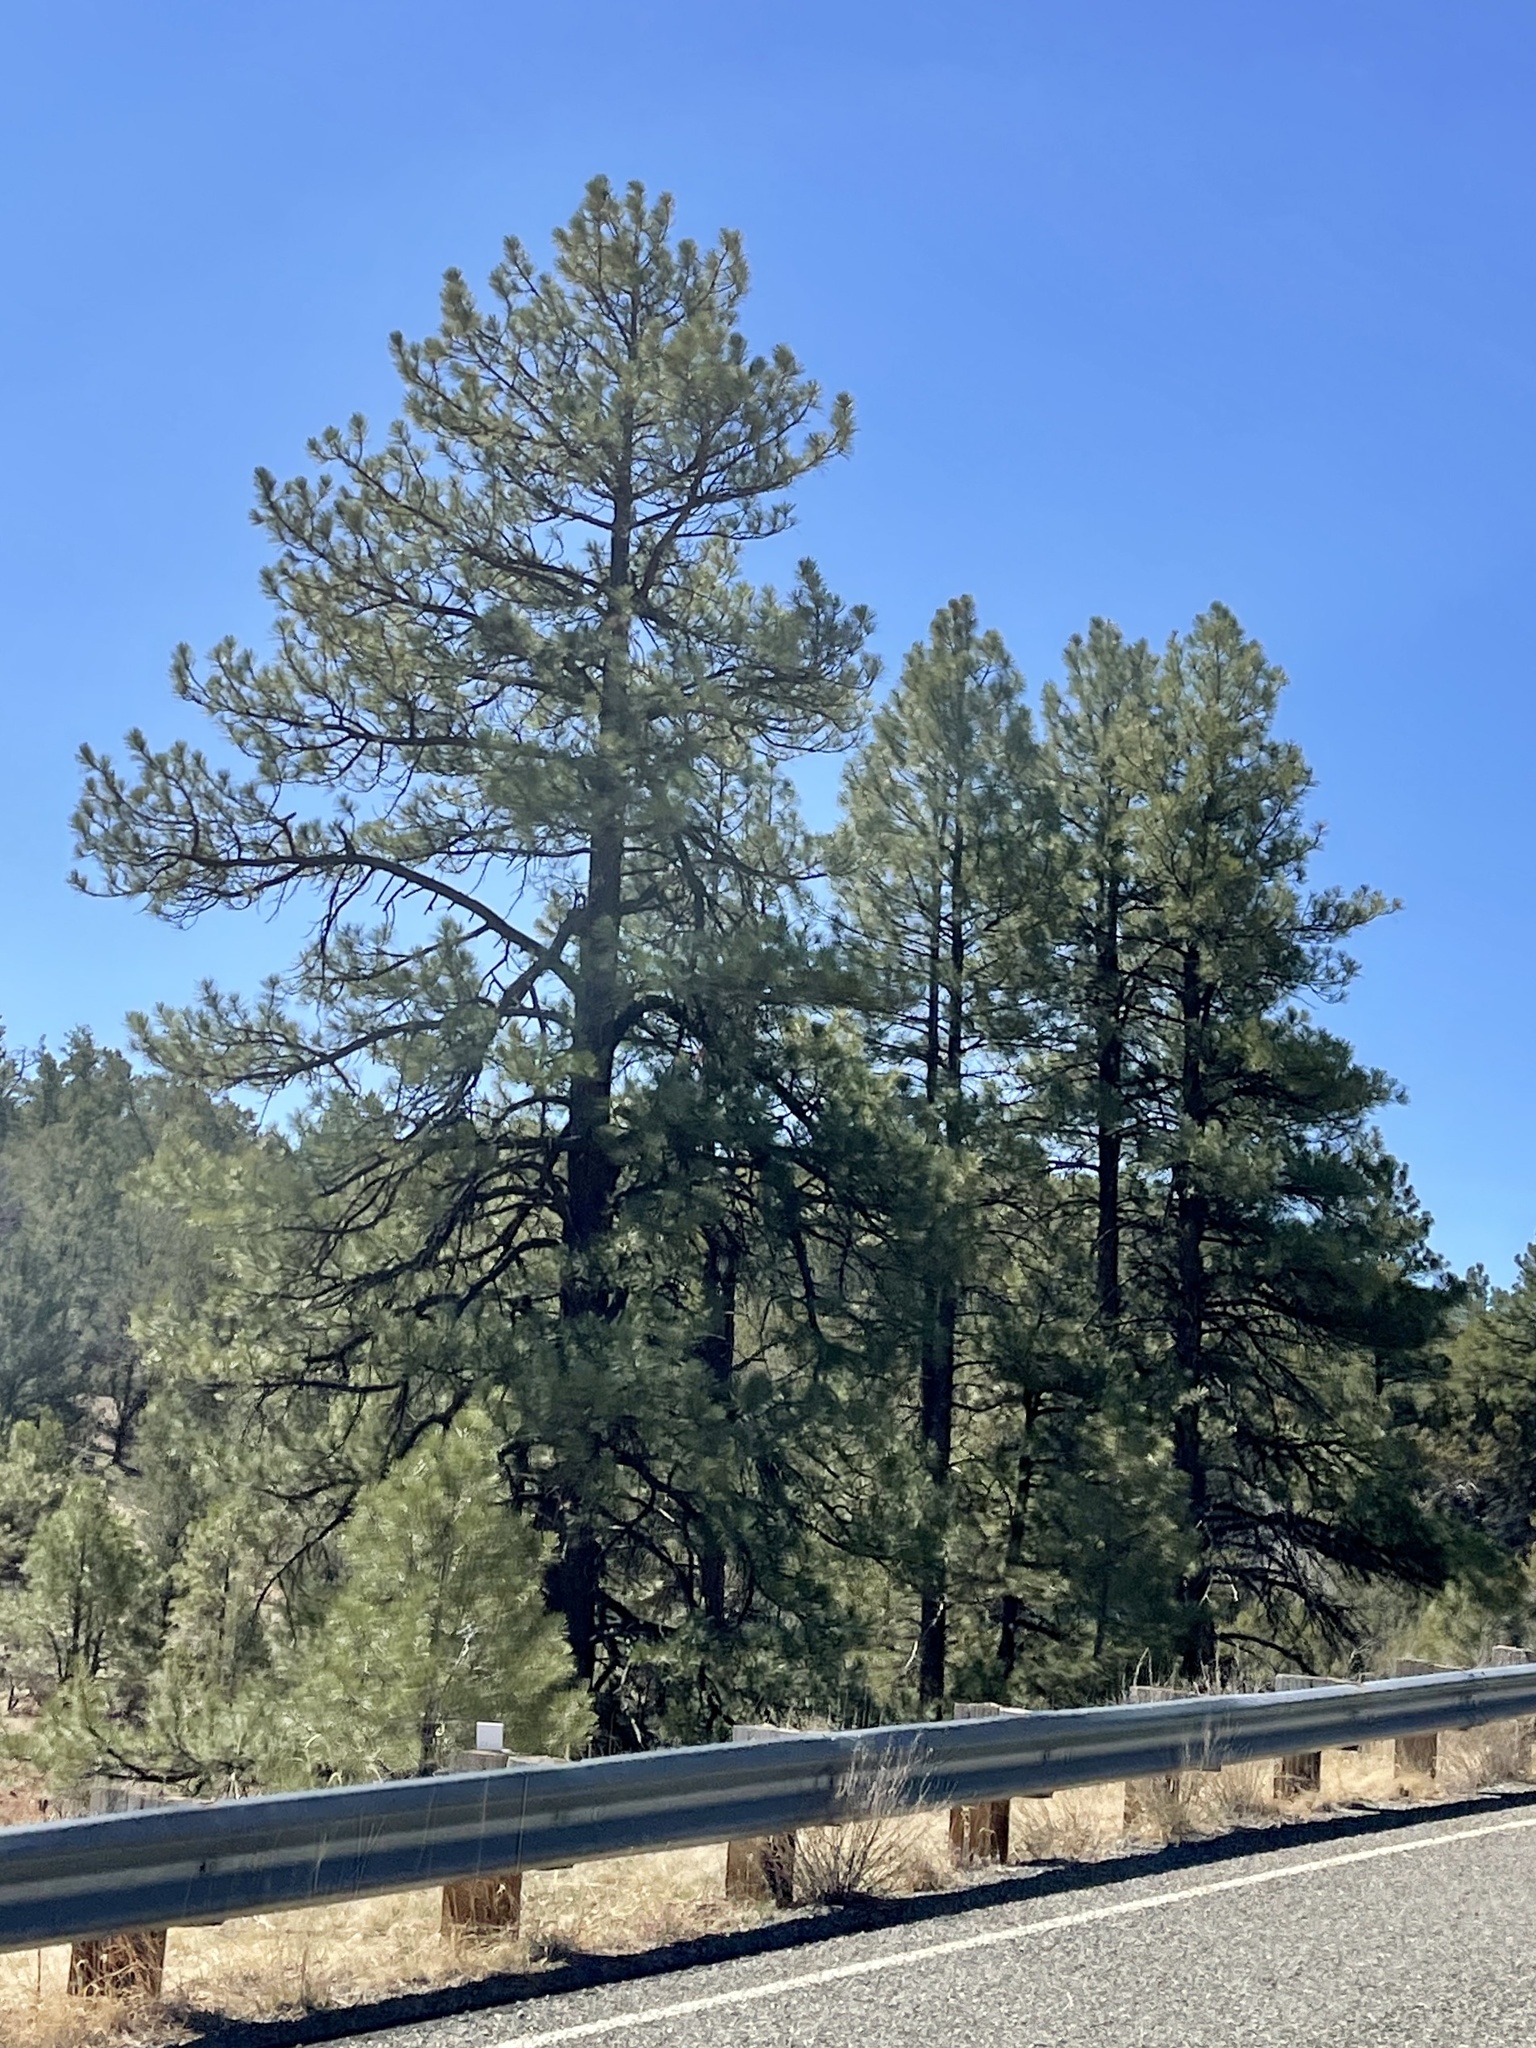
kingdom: Plantae
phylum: Tracheophyta
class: Pinopsida
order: Pinales
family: Pinaceae
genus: Pinus
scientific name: Pinus ponderosa
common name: Western yellow-pine
